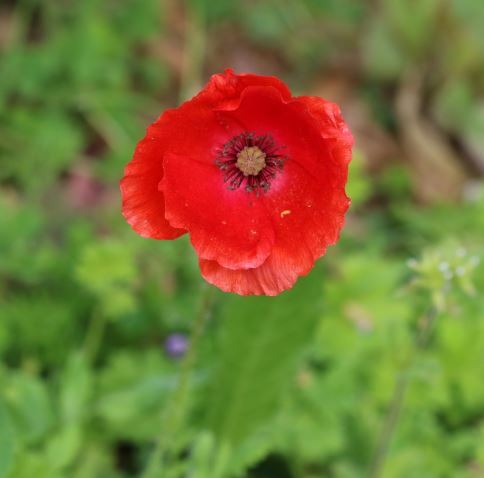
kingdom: Plantae
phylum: Tracheophyta
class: Magnoliopsida
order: Ranunculales
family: Papaveraceae
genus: Papaver
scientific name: Papaver rhoeas
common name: Corn poppy
